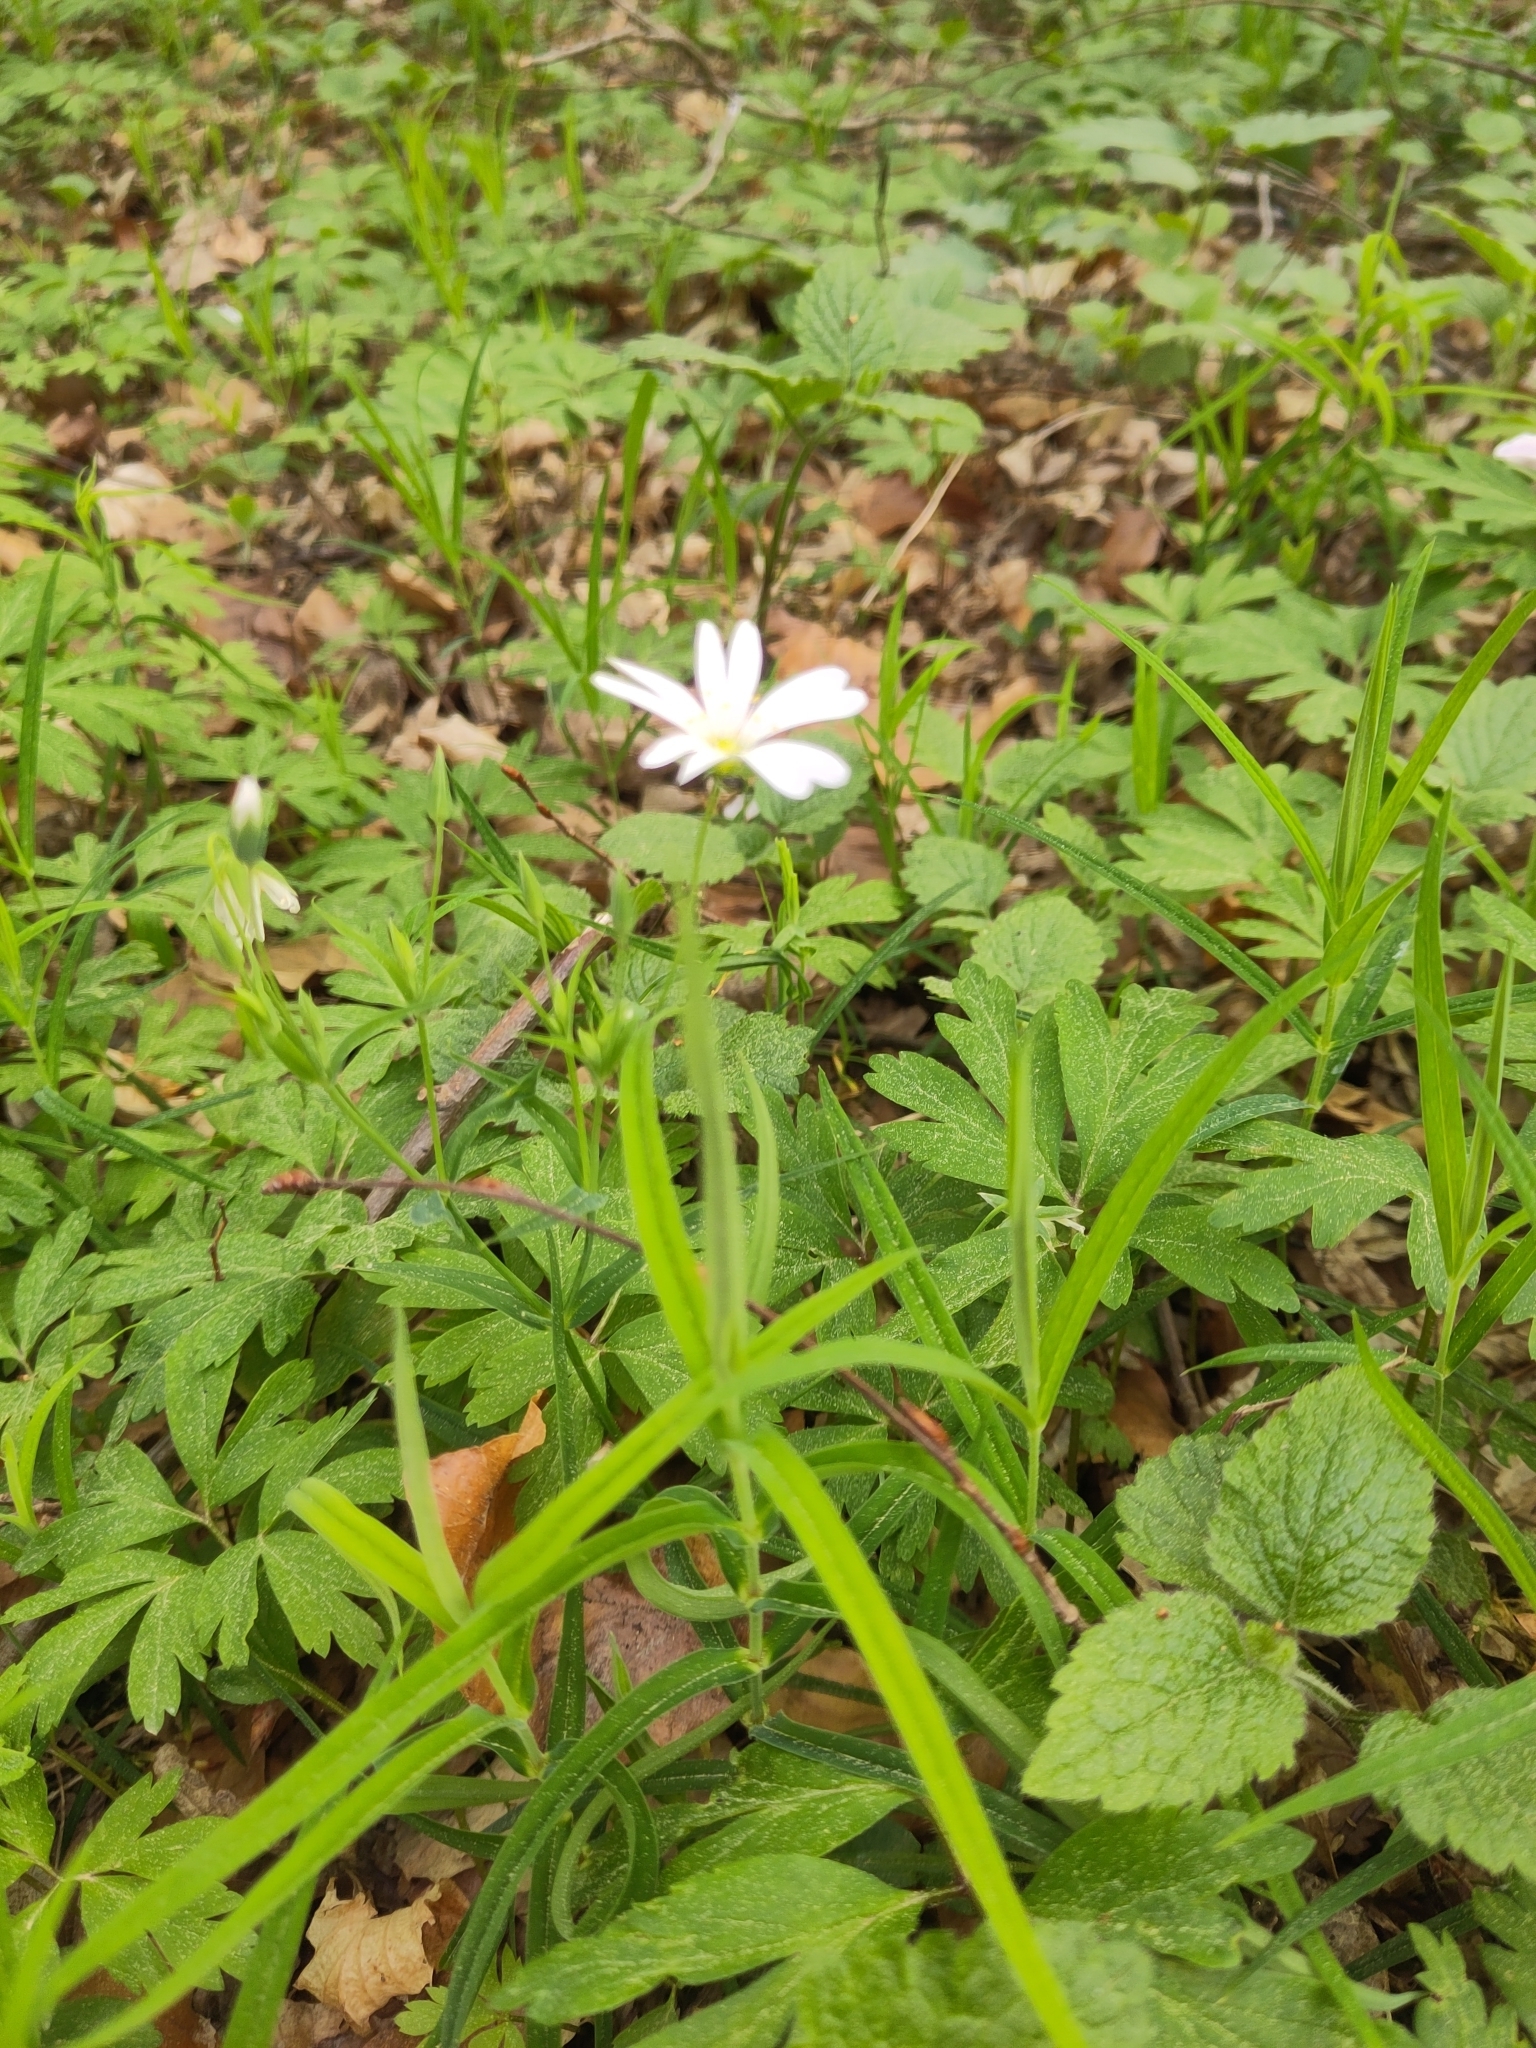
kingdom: Plantae
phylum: Tracheophyta
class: Magnoliopsida
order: Caryophyllales
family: Caryophyllaceae
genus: Rabelera
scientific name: Rabelera holostea
